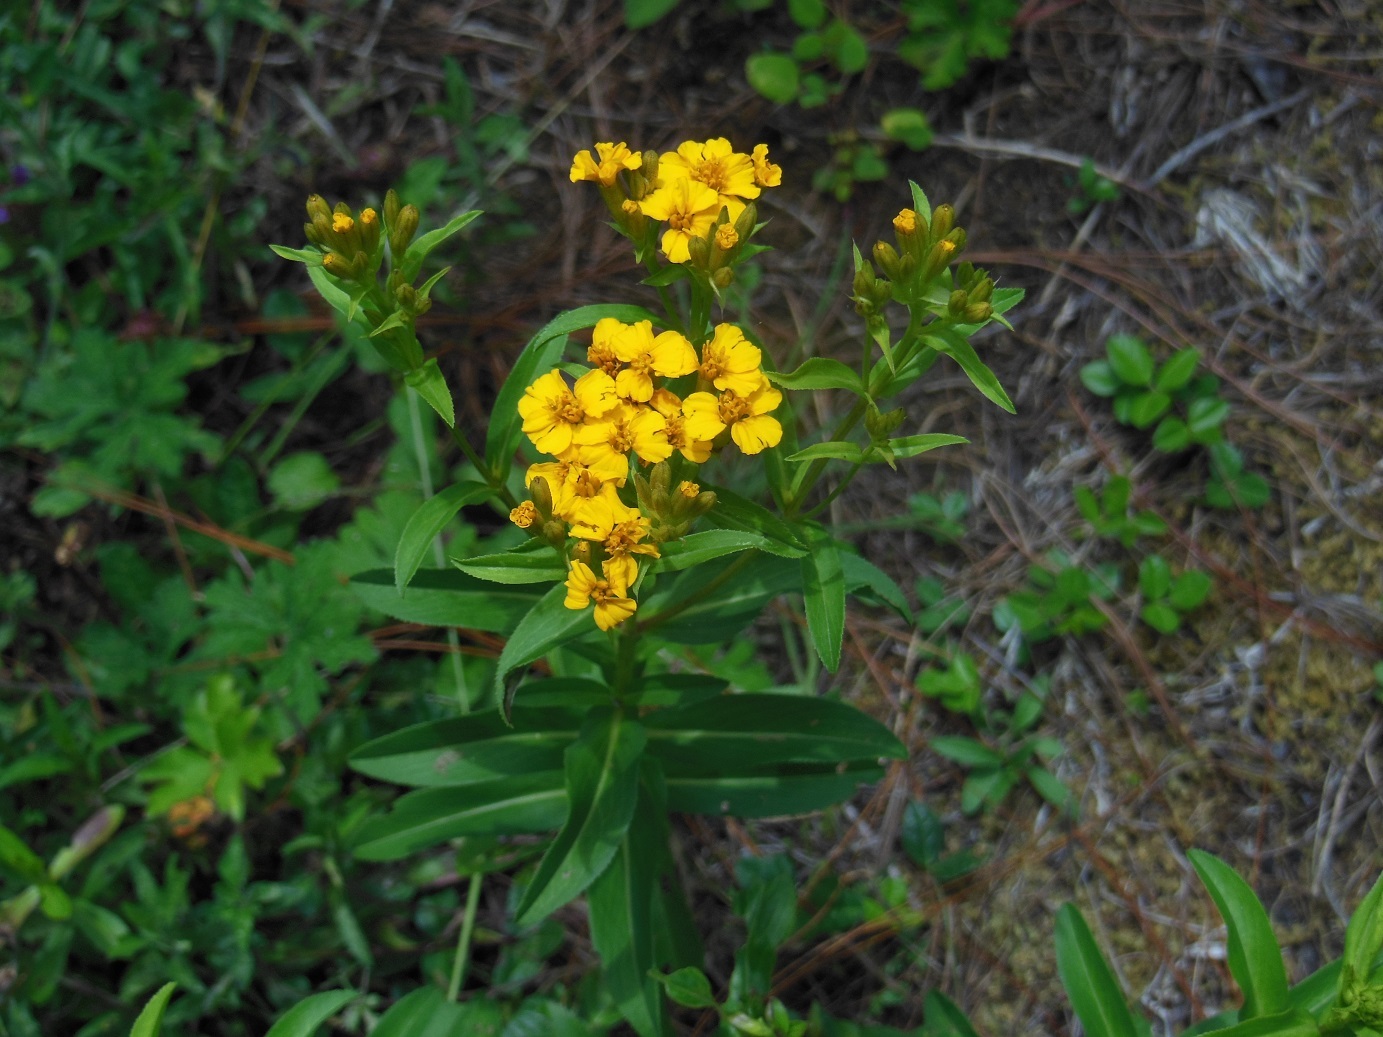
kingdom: Plantae
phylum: Tracheophyta
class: Magnoliopsida
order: Asterales
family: Asteraceae
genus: Tagetes
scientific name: Tagetes lucida
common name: Sweetscented marigold
